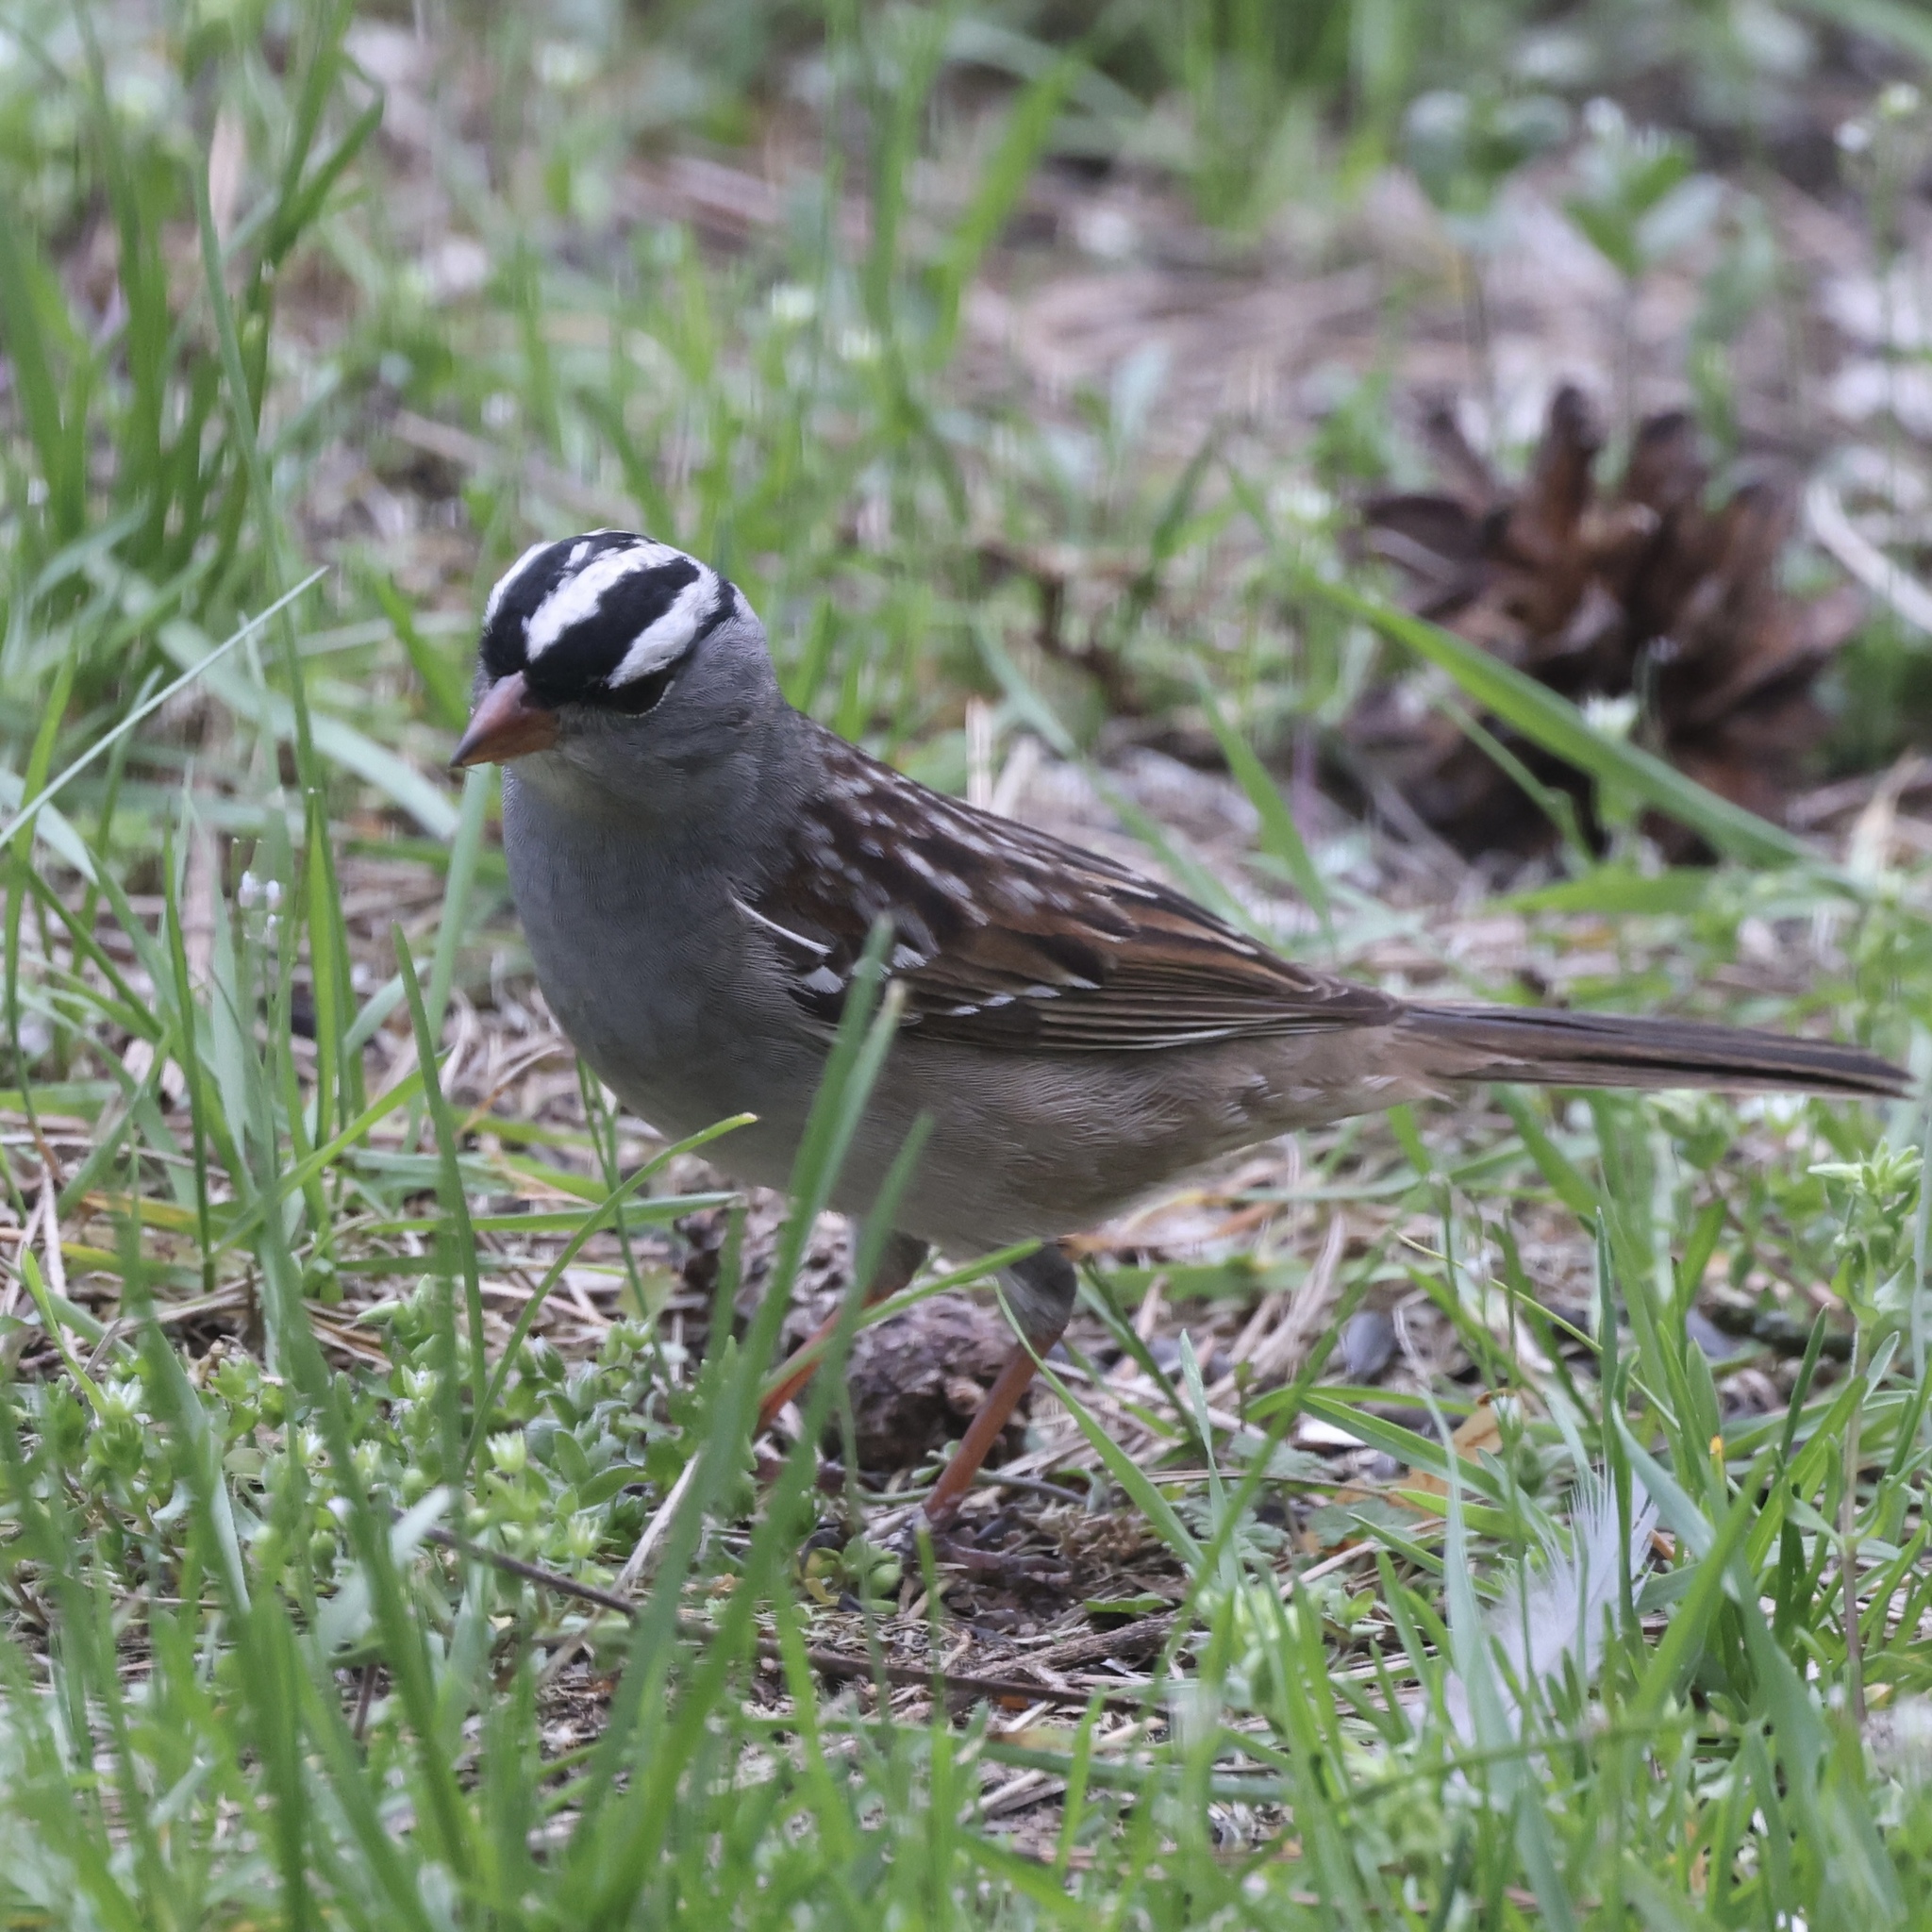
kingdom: Animalia
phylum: Chordata
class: Aves
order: Passeriformes
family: Passerellidae
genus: Zonotrichia
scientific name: Zonotrichia leucophrys
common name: White-crowned sparrow
